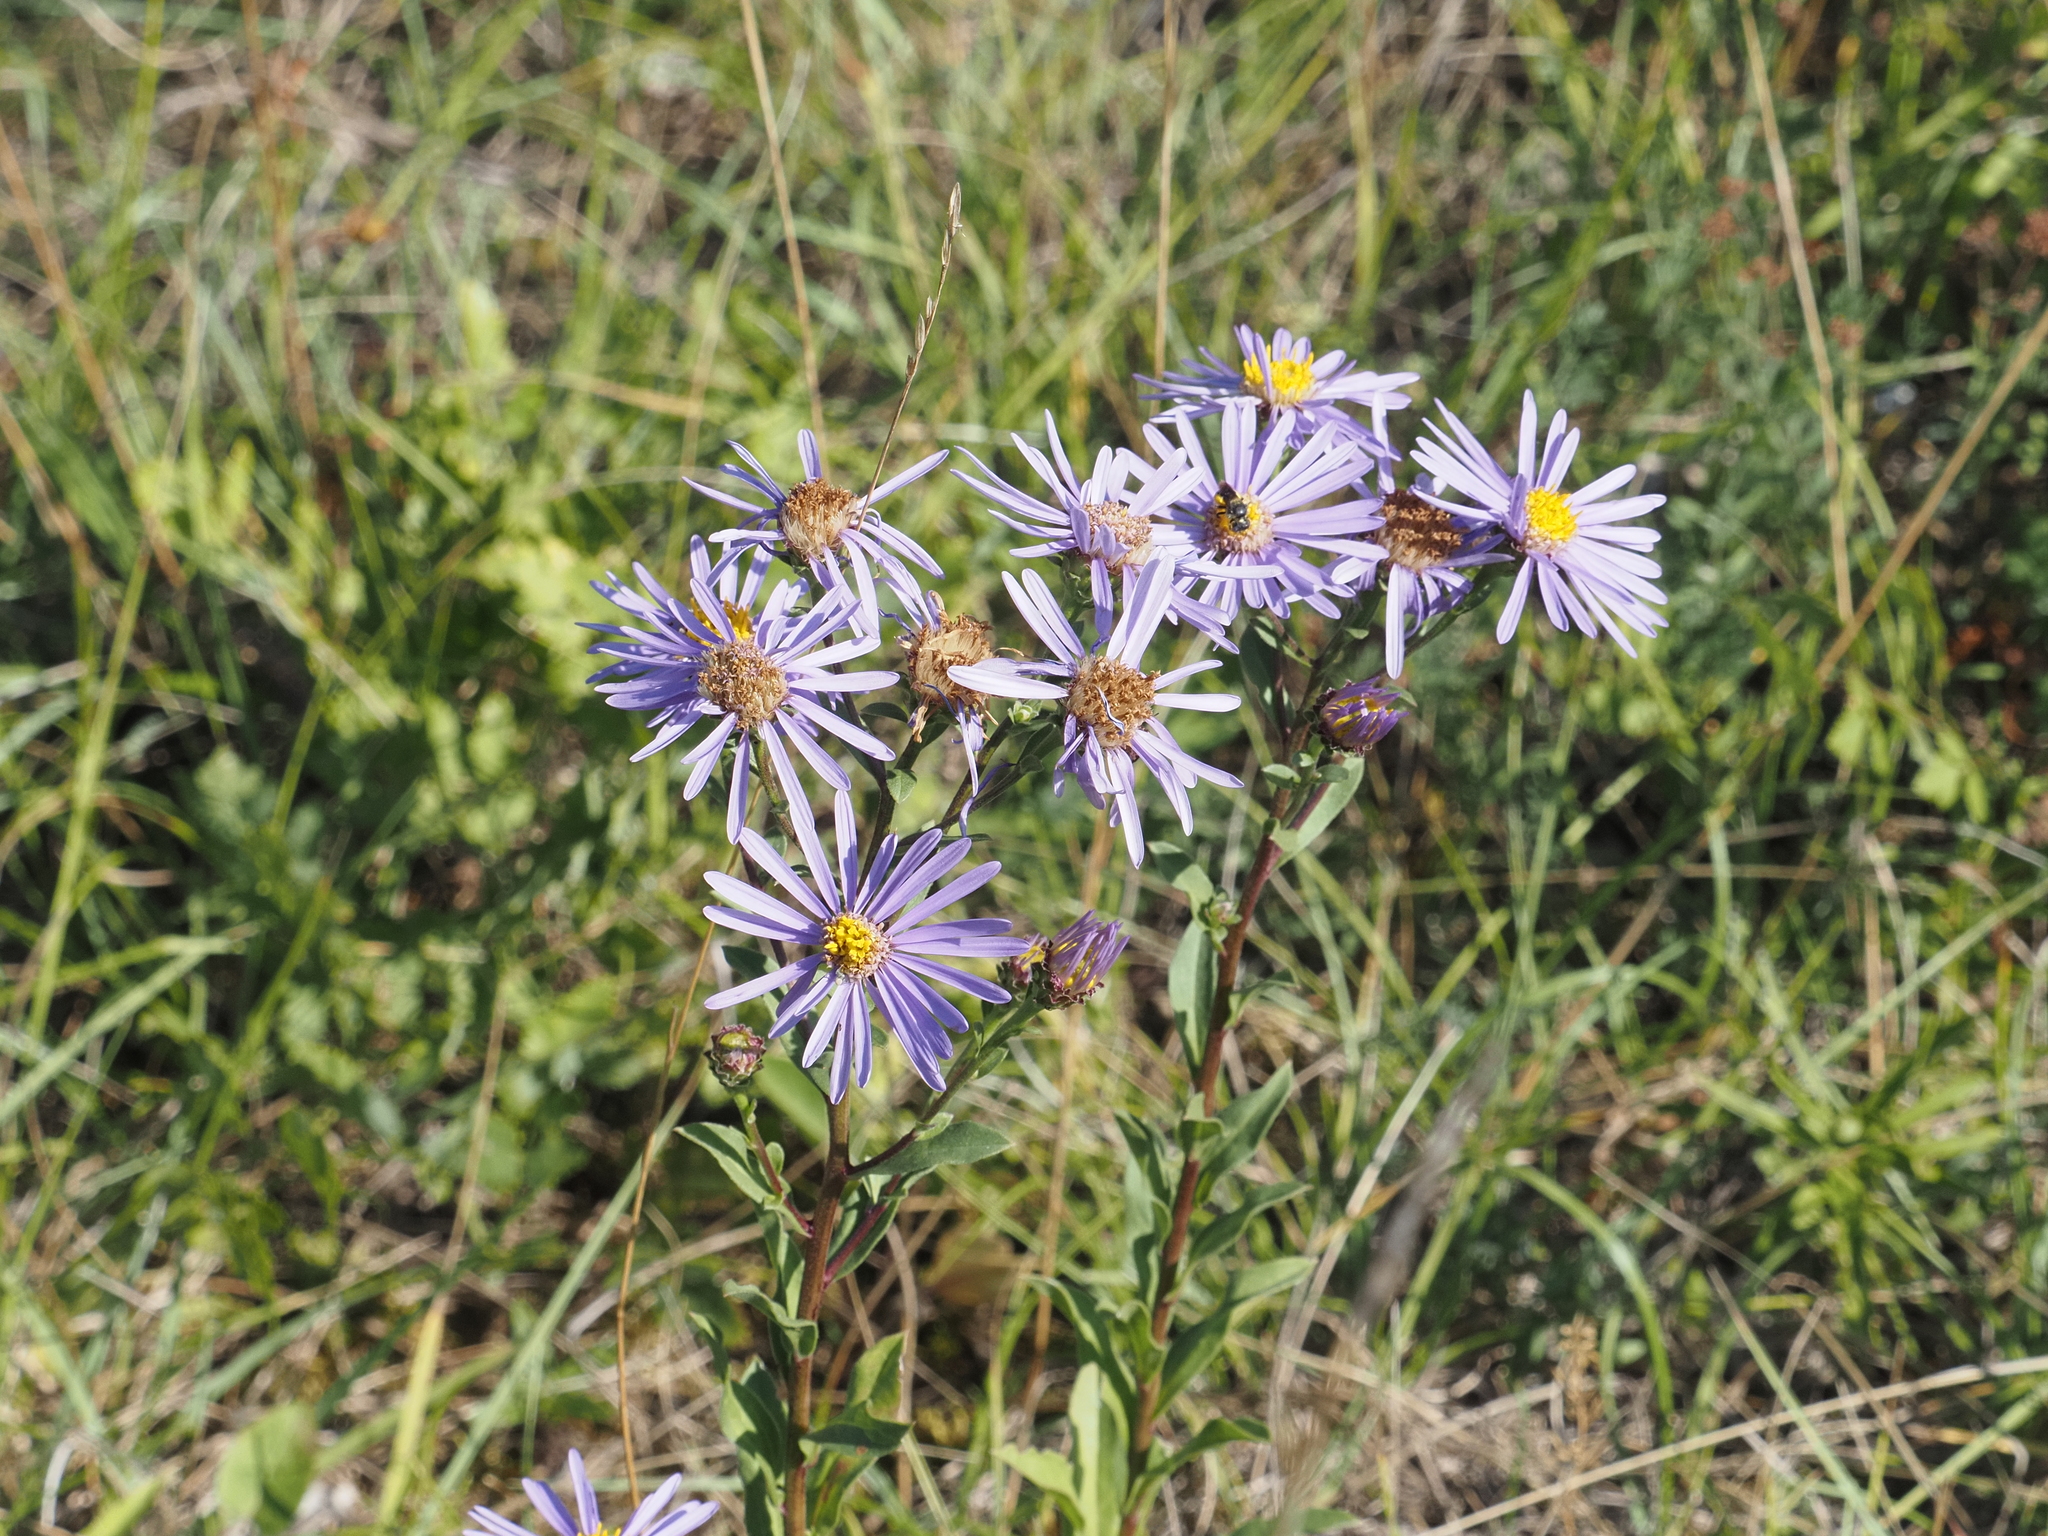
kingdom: Plantae
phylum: Tracheophyta
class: Magnoliopsida
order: Asterales
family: Asteraceae
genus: Aster
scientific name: Aster amellus
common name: European michaelmas daisy
